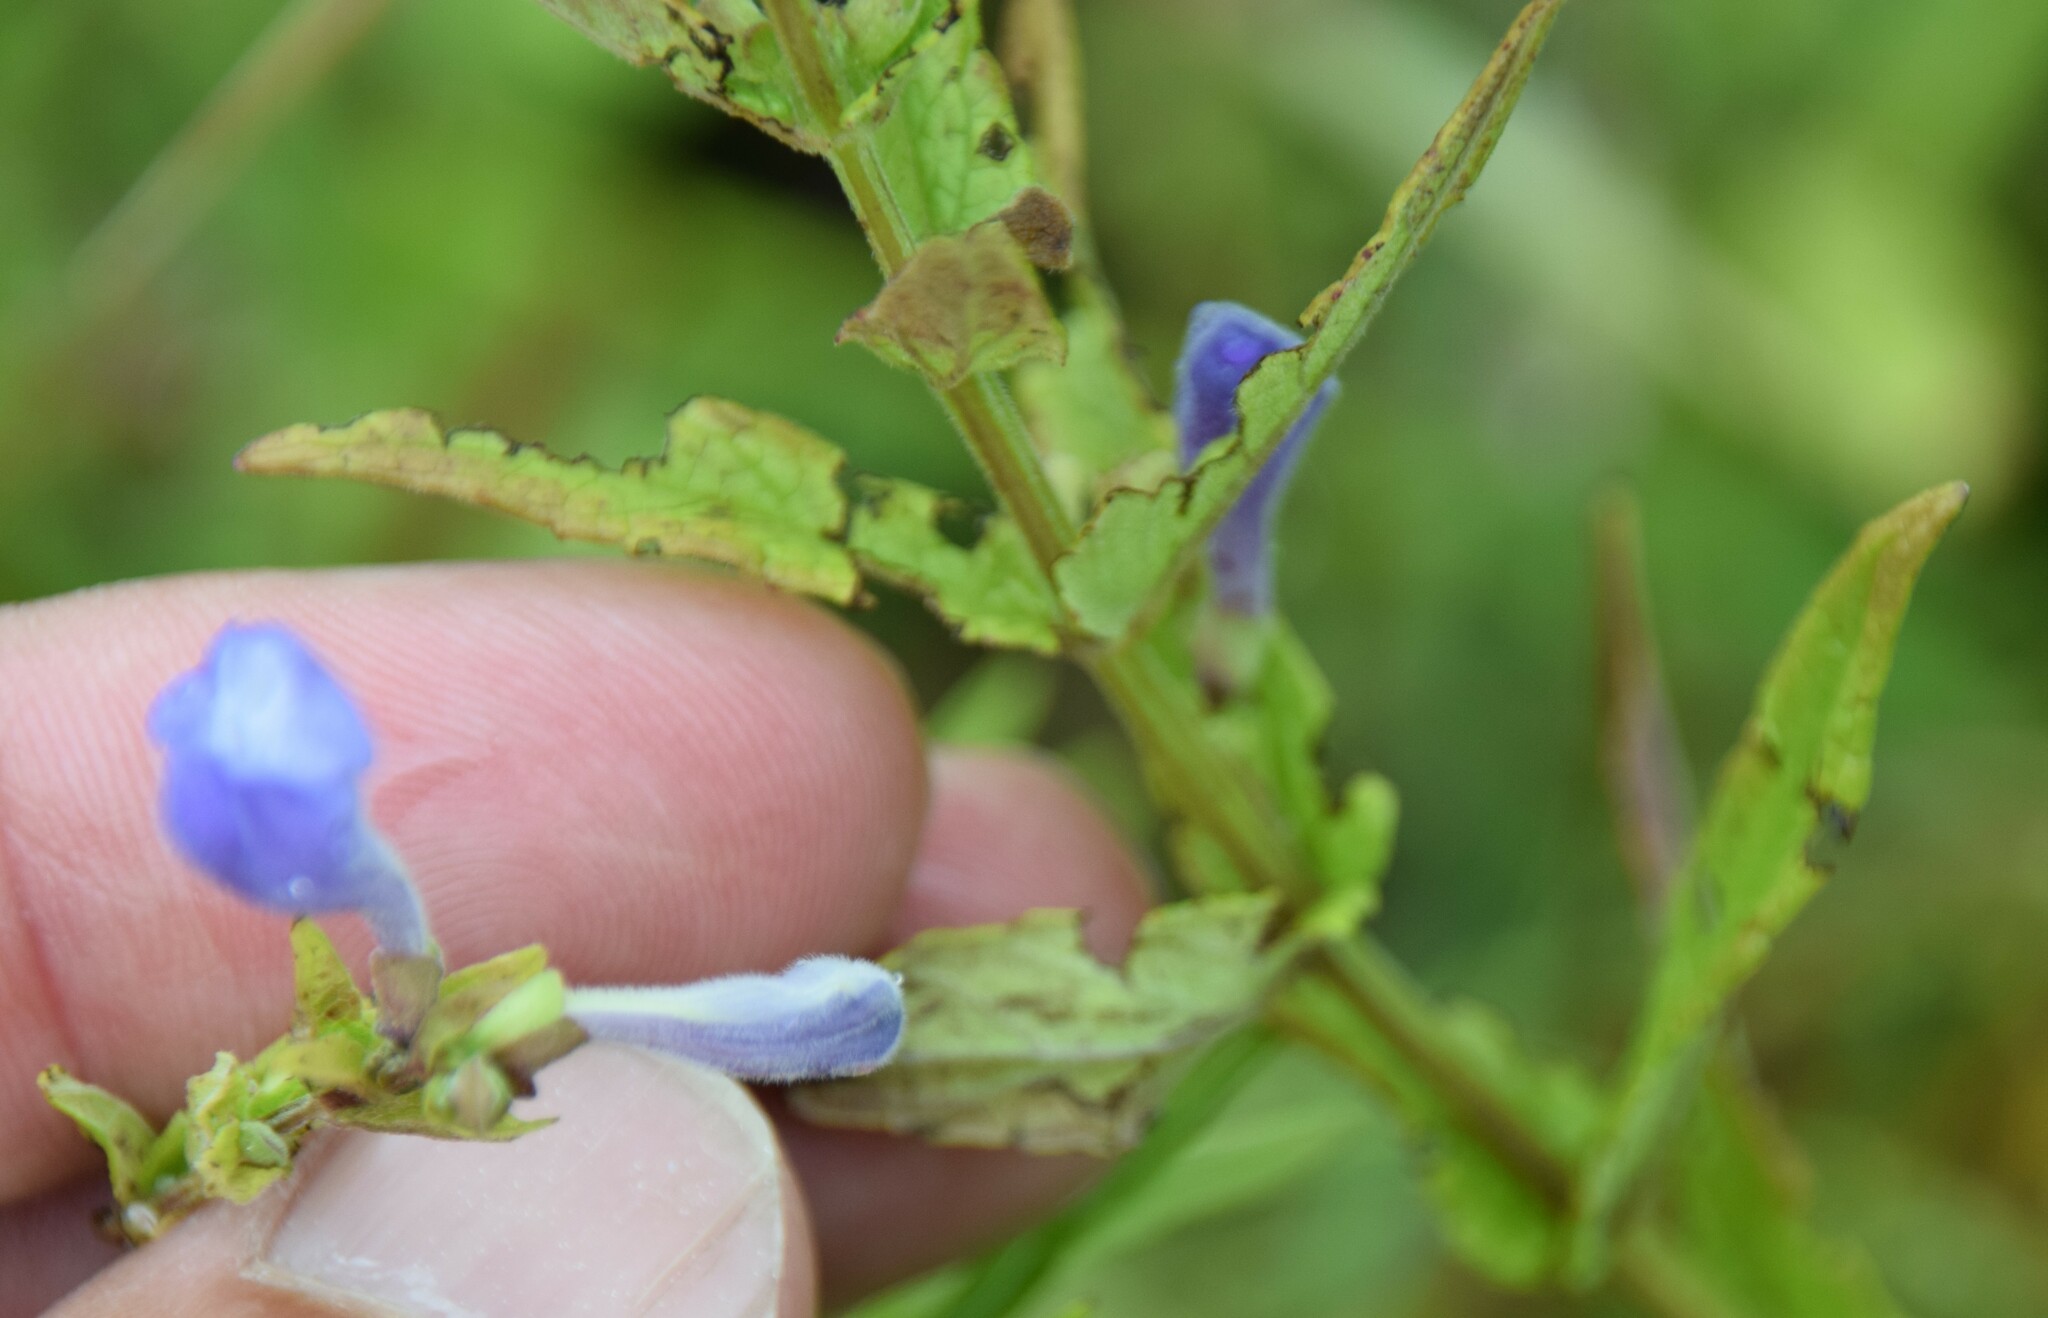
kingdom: Plantae
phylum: Tracheophyta
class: Magnoliopsida
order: Lamiales
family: Lamiaceae
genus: Scutellaria
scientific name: Scutellaria galericulata
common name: Skullcap
